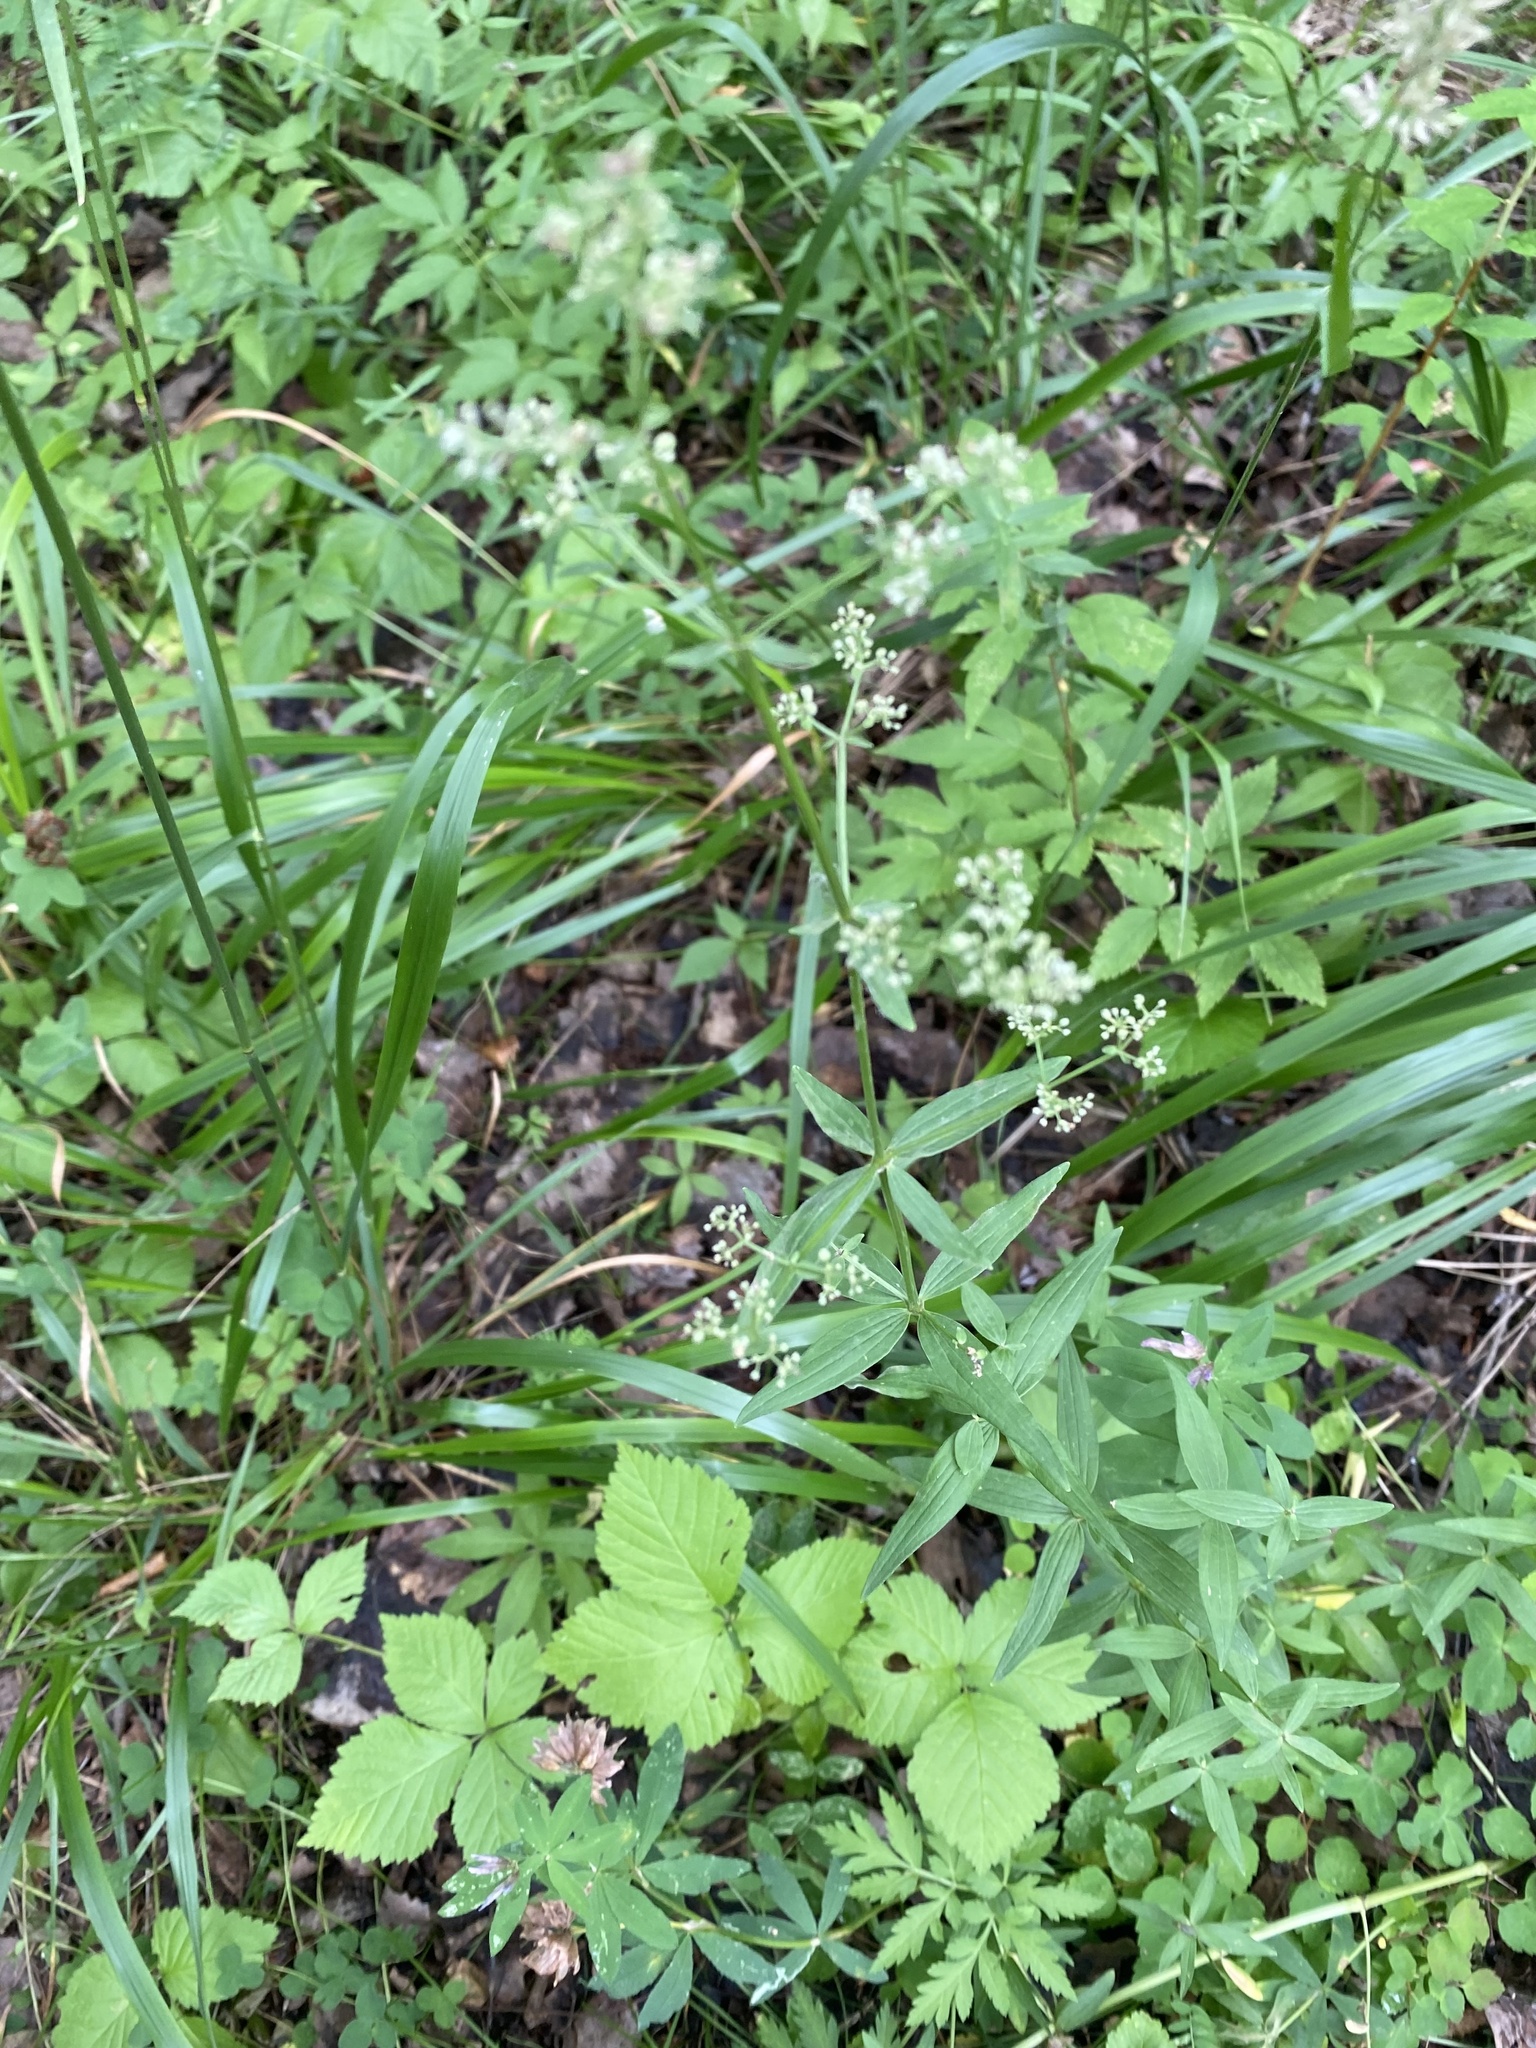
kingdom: Plantae
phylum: Tracheophyta
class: Magnoliopsida
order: Gentianales
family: Rubiaceae
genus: Galium
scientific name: Galium boreale
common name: Northern bedstraw
